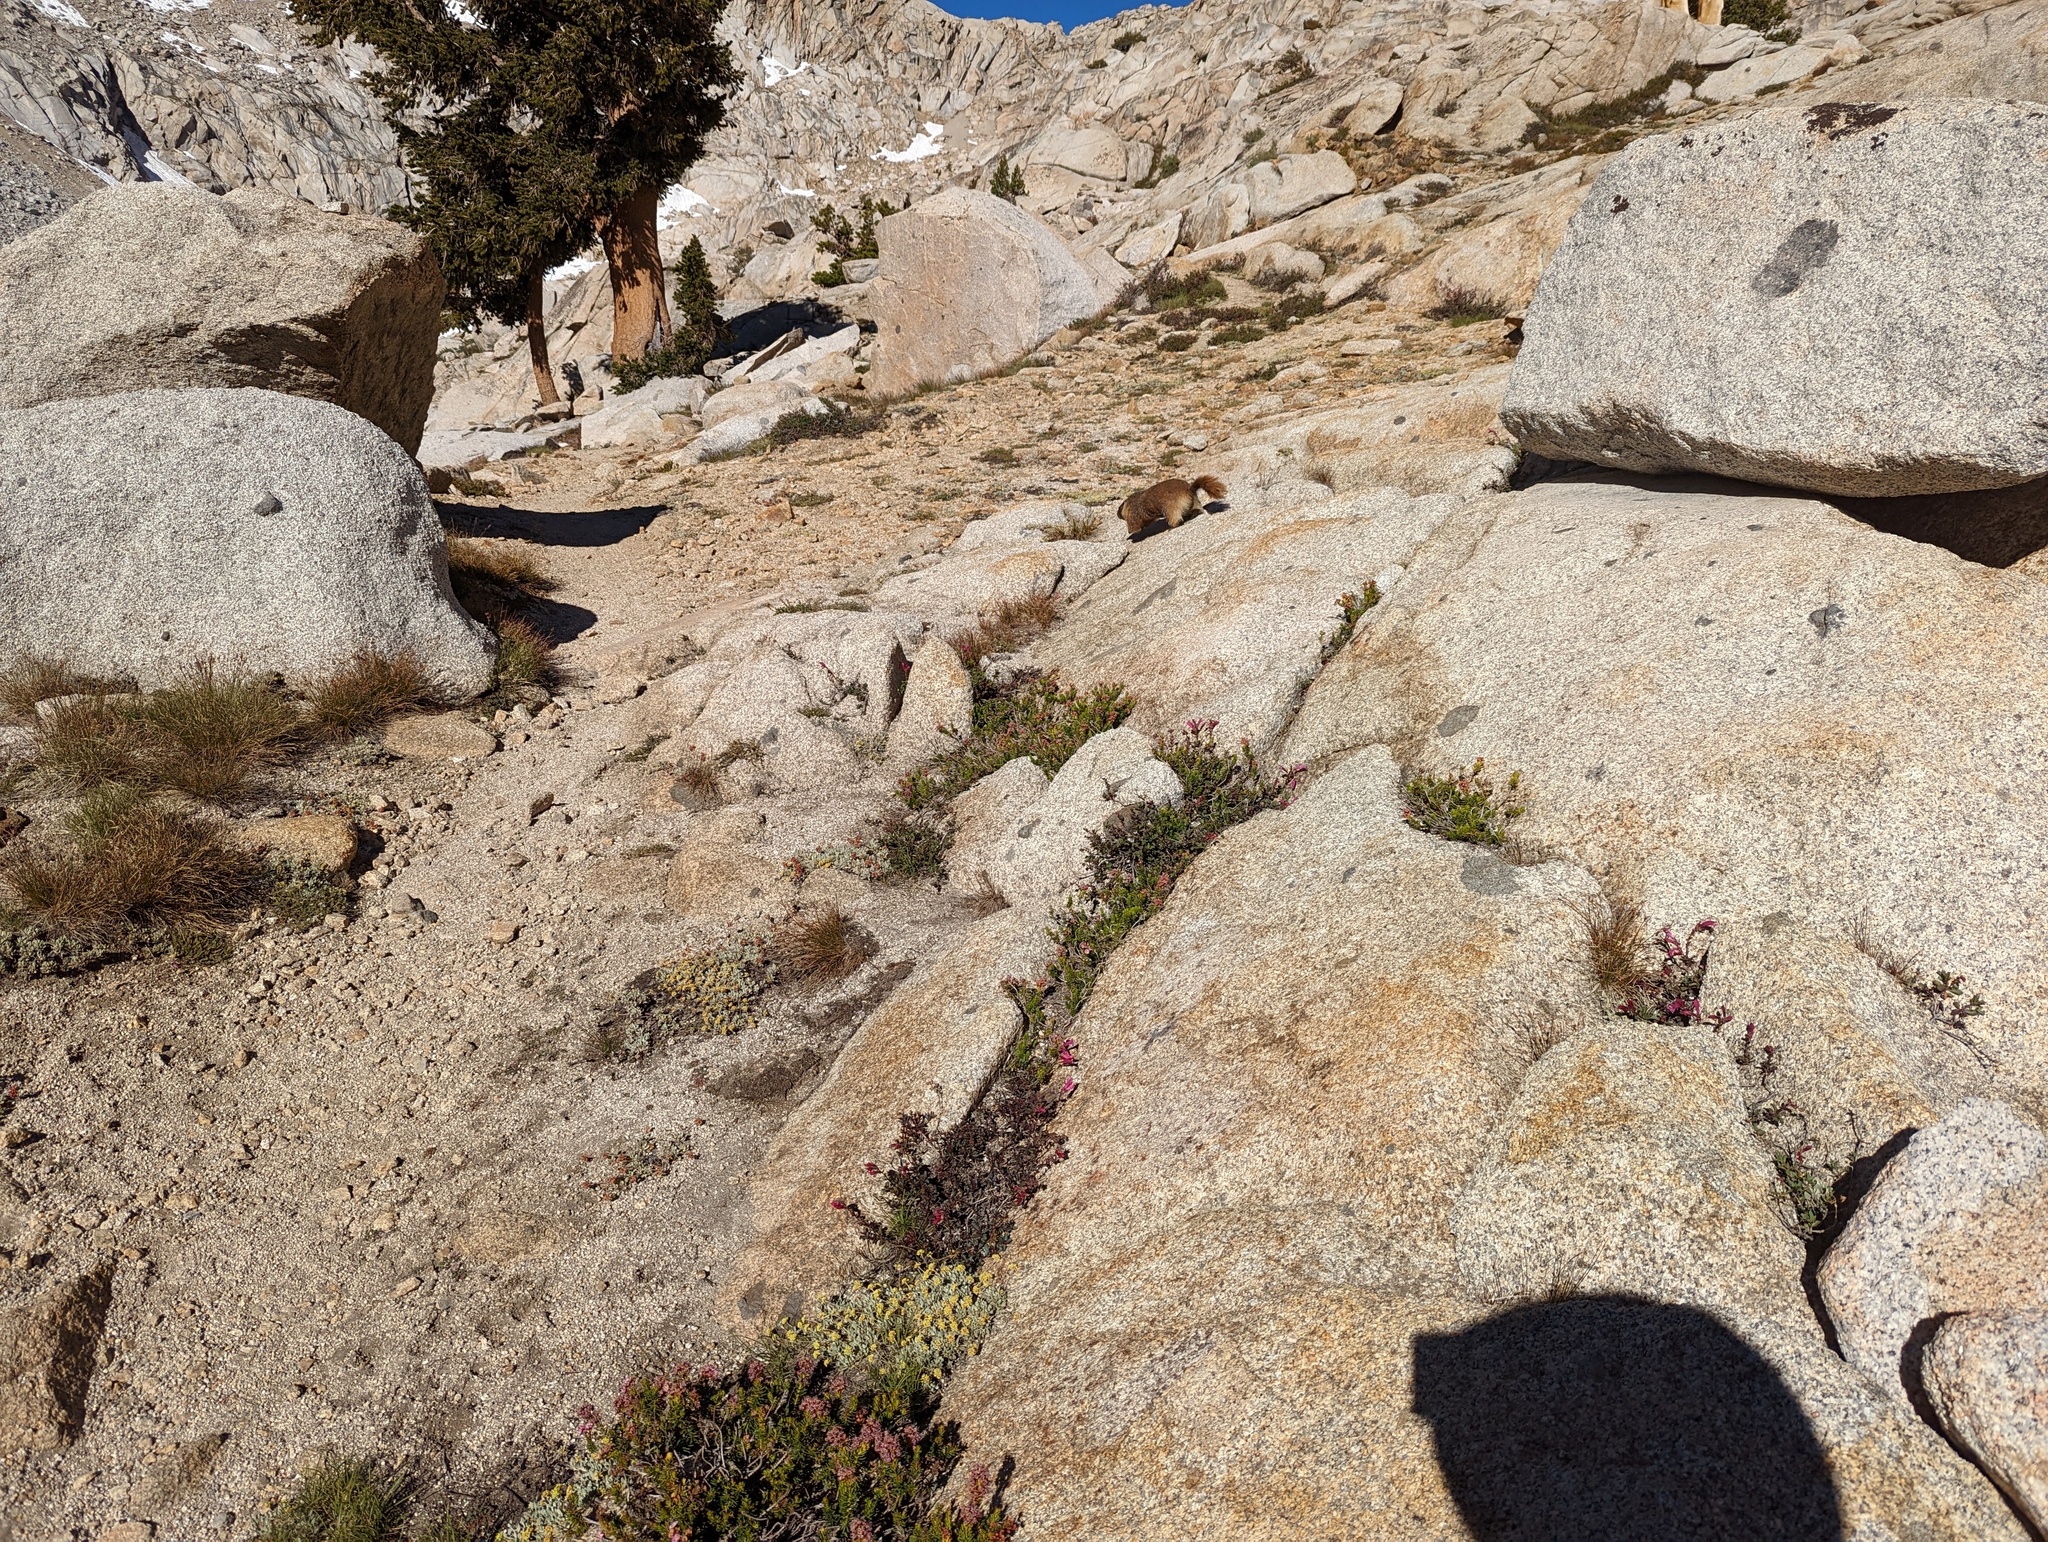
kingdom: Animalia
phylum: Chordata
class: Mammalia
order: Rodentia
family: Sciuridae
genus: Marmota
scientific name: Marmota flaviventris
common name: Yellow-bellied marmot
